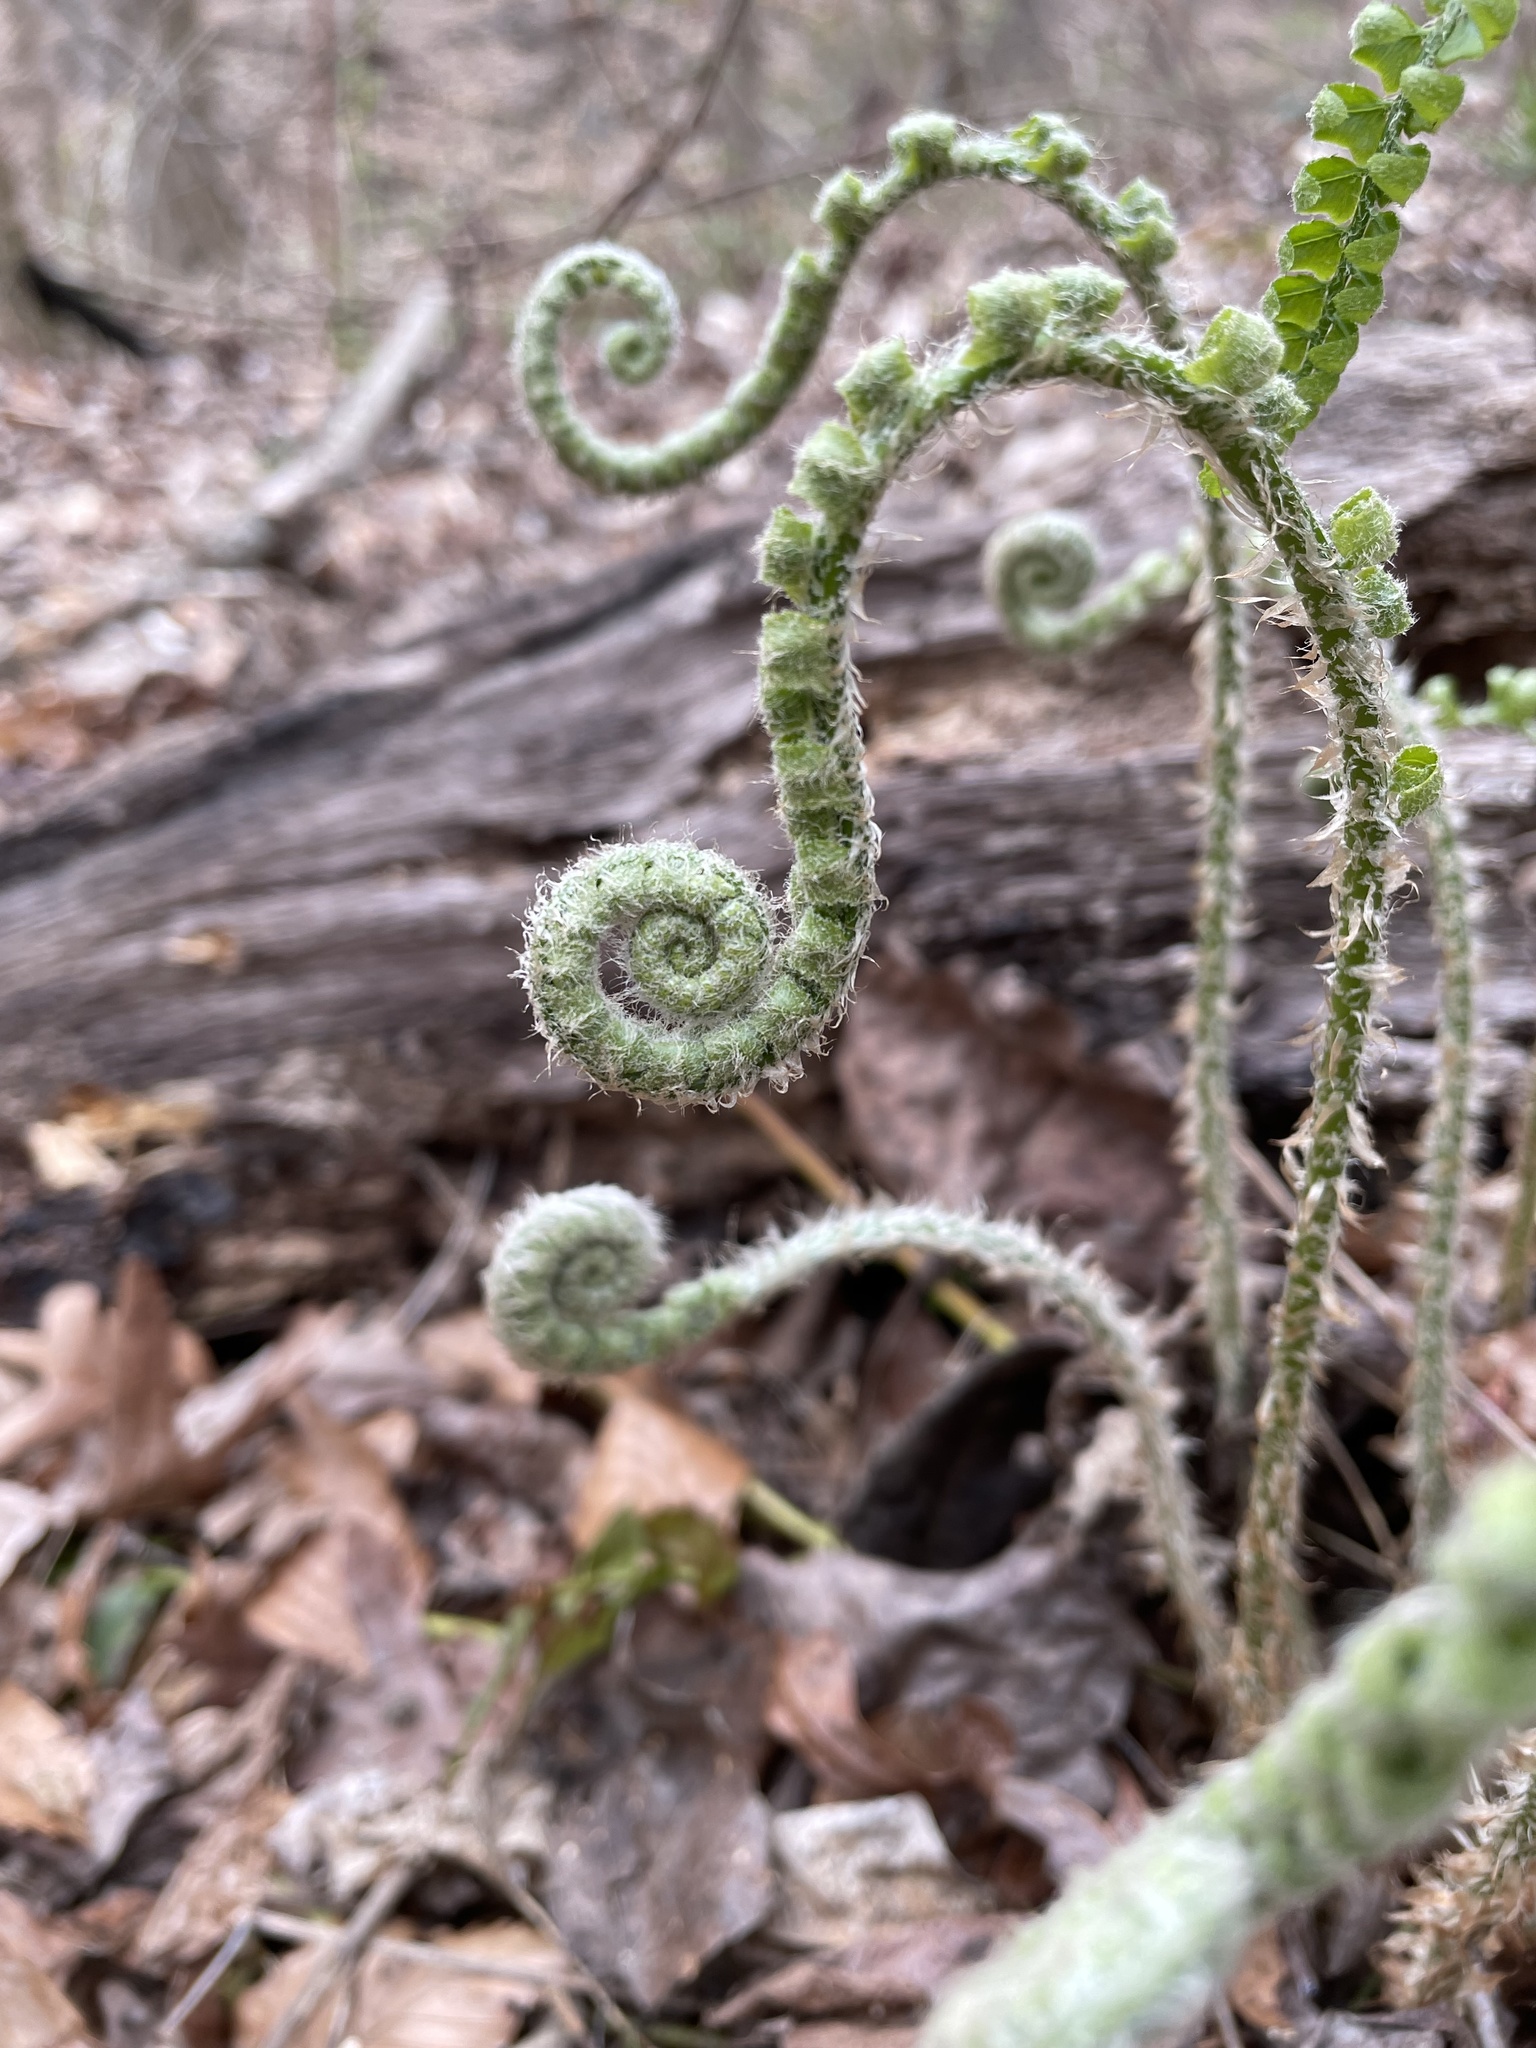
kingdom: Plantae
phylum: Tracheophyta
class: Polypodiopsida
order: Polypodiales
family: Dryopteridaceae
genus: Polystichum
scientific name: Polystichum acrostichoides
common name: Christmas fern
